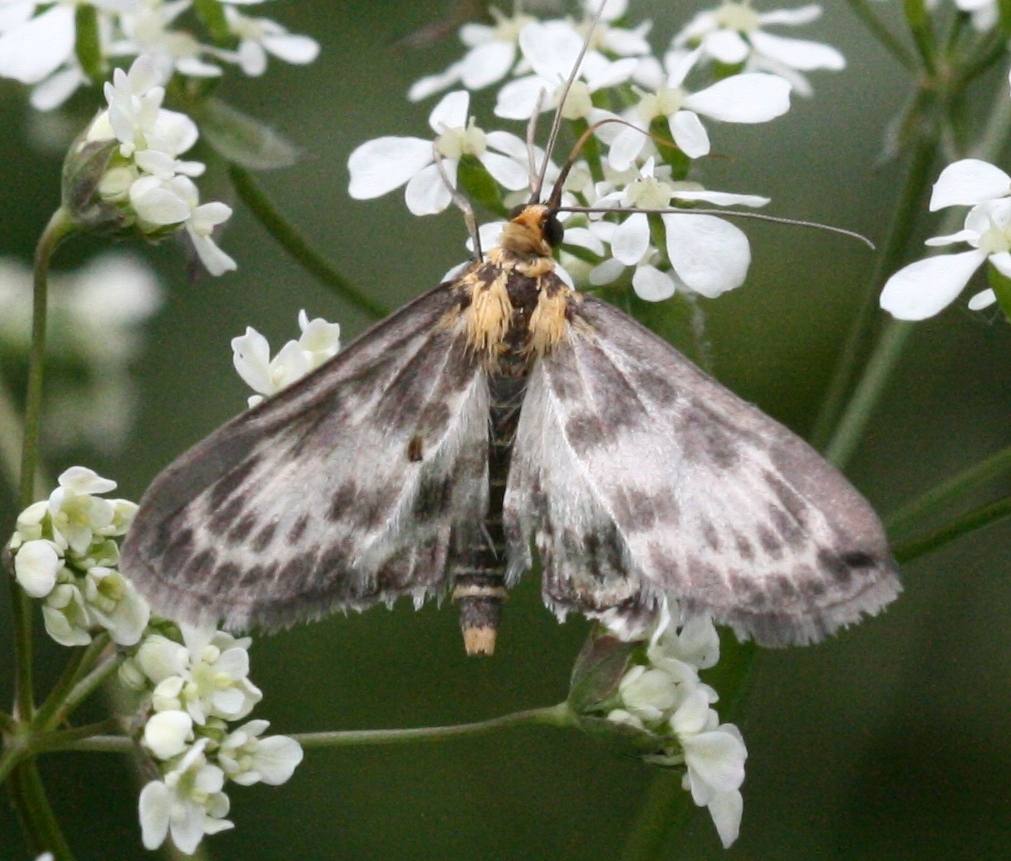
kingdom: Animalia
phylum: Arthropoda
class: Insecta
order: Lepidoptera
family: Crambidae
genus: Anania
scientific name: Anania hortulata
